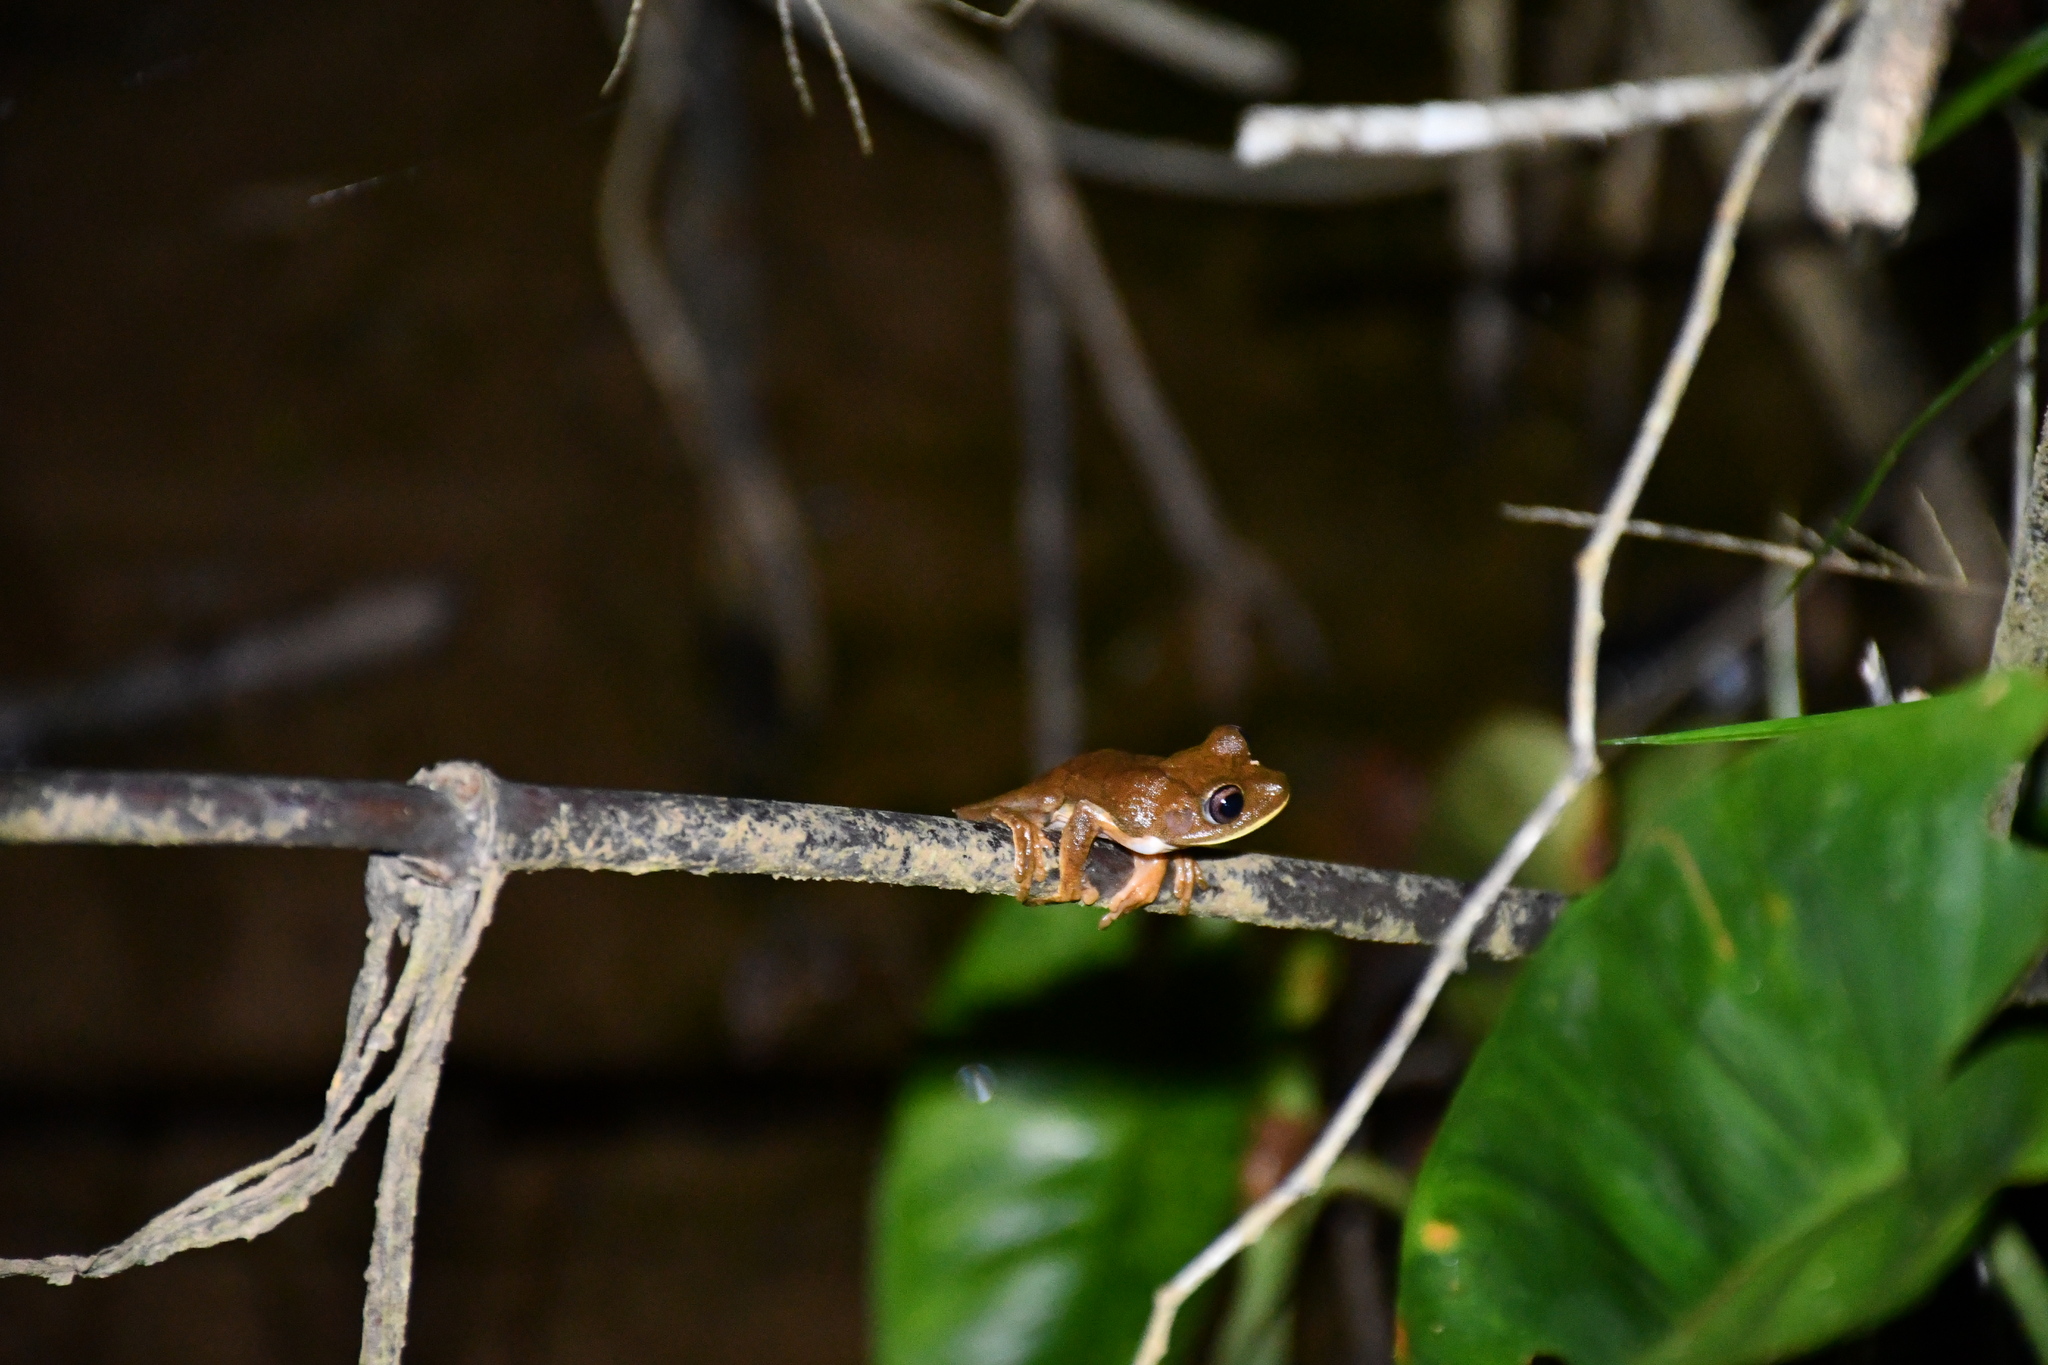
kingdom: Animalia
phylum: Chordata
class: Amphibia
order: Anura
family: Hylidae
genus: Boana
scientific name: Boana geographica
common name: Map treefrog
